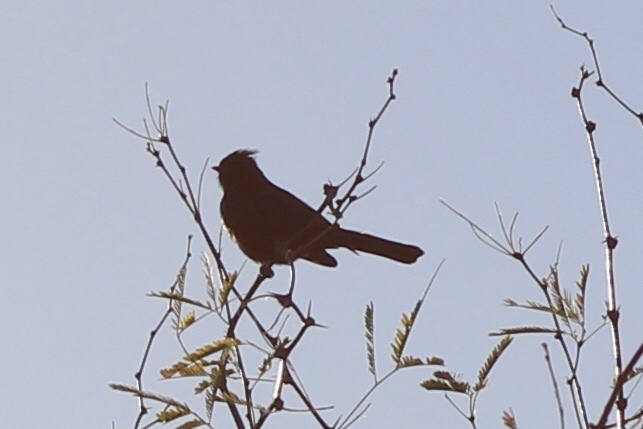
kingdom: Animalia
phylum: Chordata
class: Aves
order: Passeriformes
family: Ptilogonatidae
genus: Phainopepla
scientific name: Phainopepla nitens
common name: Phainopepla
